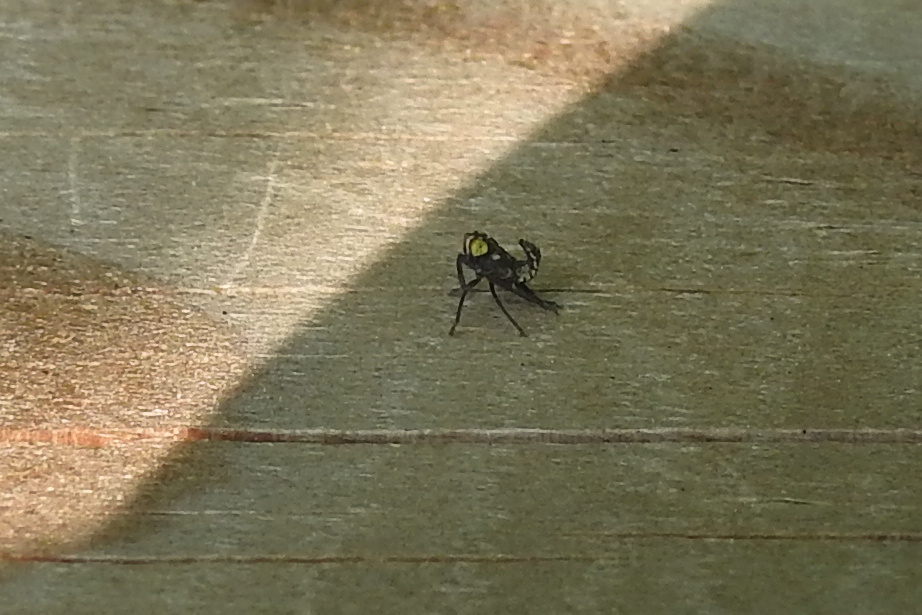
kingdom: Animalia
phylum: Arthropoda
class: Insecta
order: Hemiptera
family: Cicadellidae
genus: Jikradia
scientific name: Jikradia olitoria
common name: Coppery leafhopper
